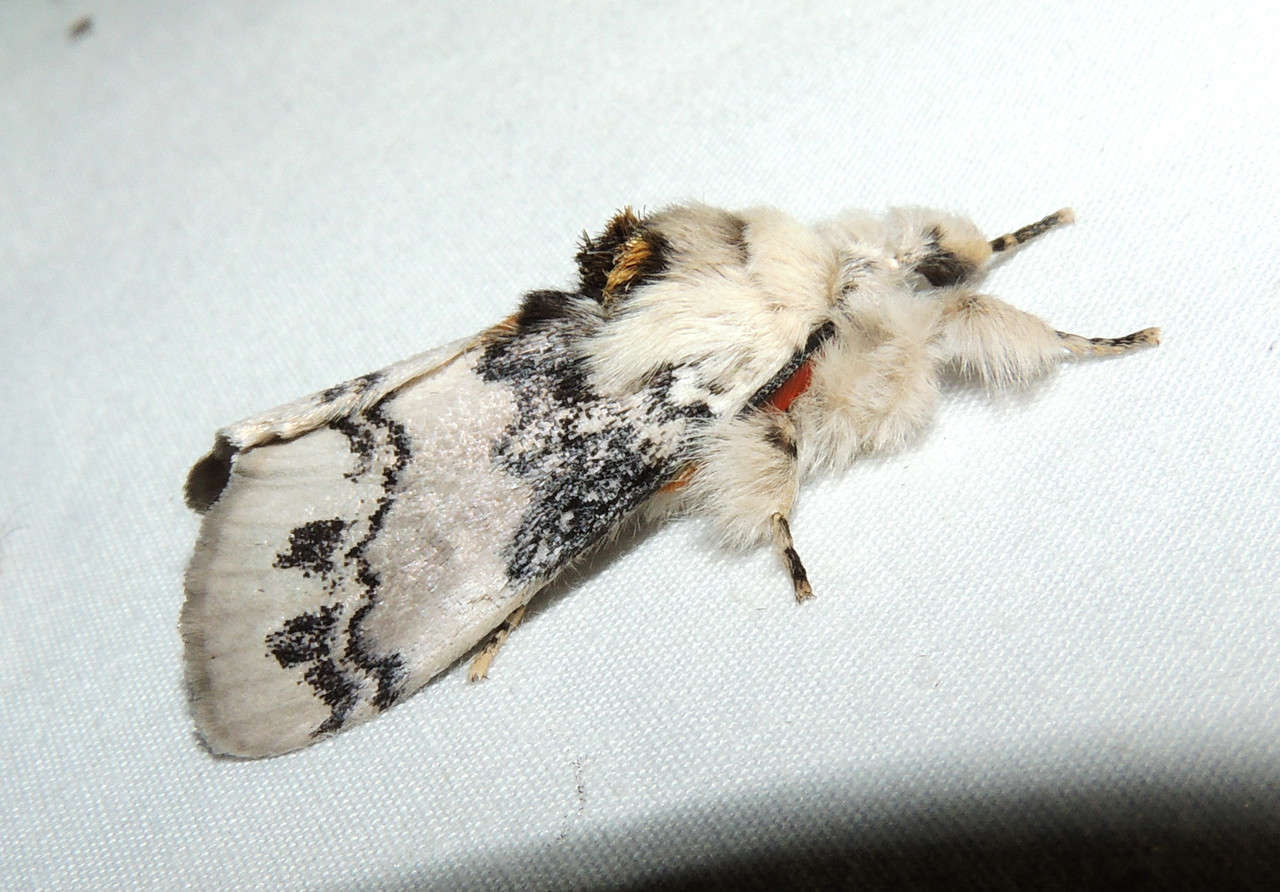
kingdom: Animalia
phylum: Arthropoda
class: Insecta
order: Lepidoptera
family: Erebidae
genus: Iropoca
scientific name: Iropoca rotundata
